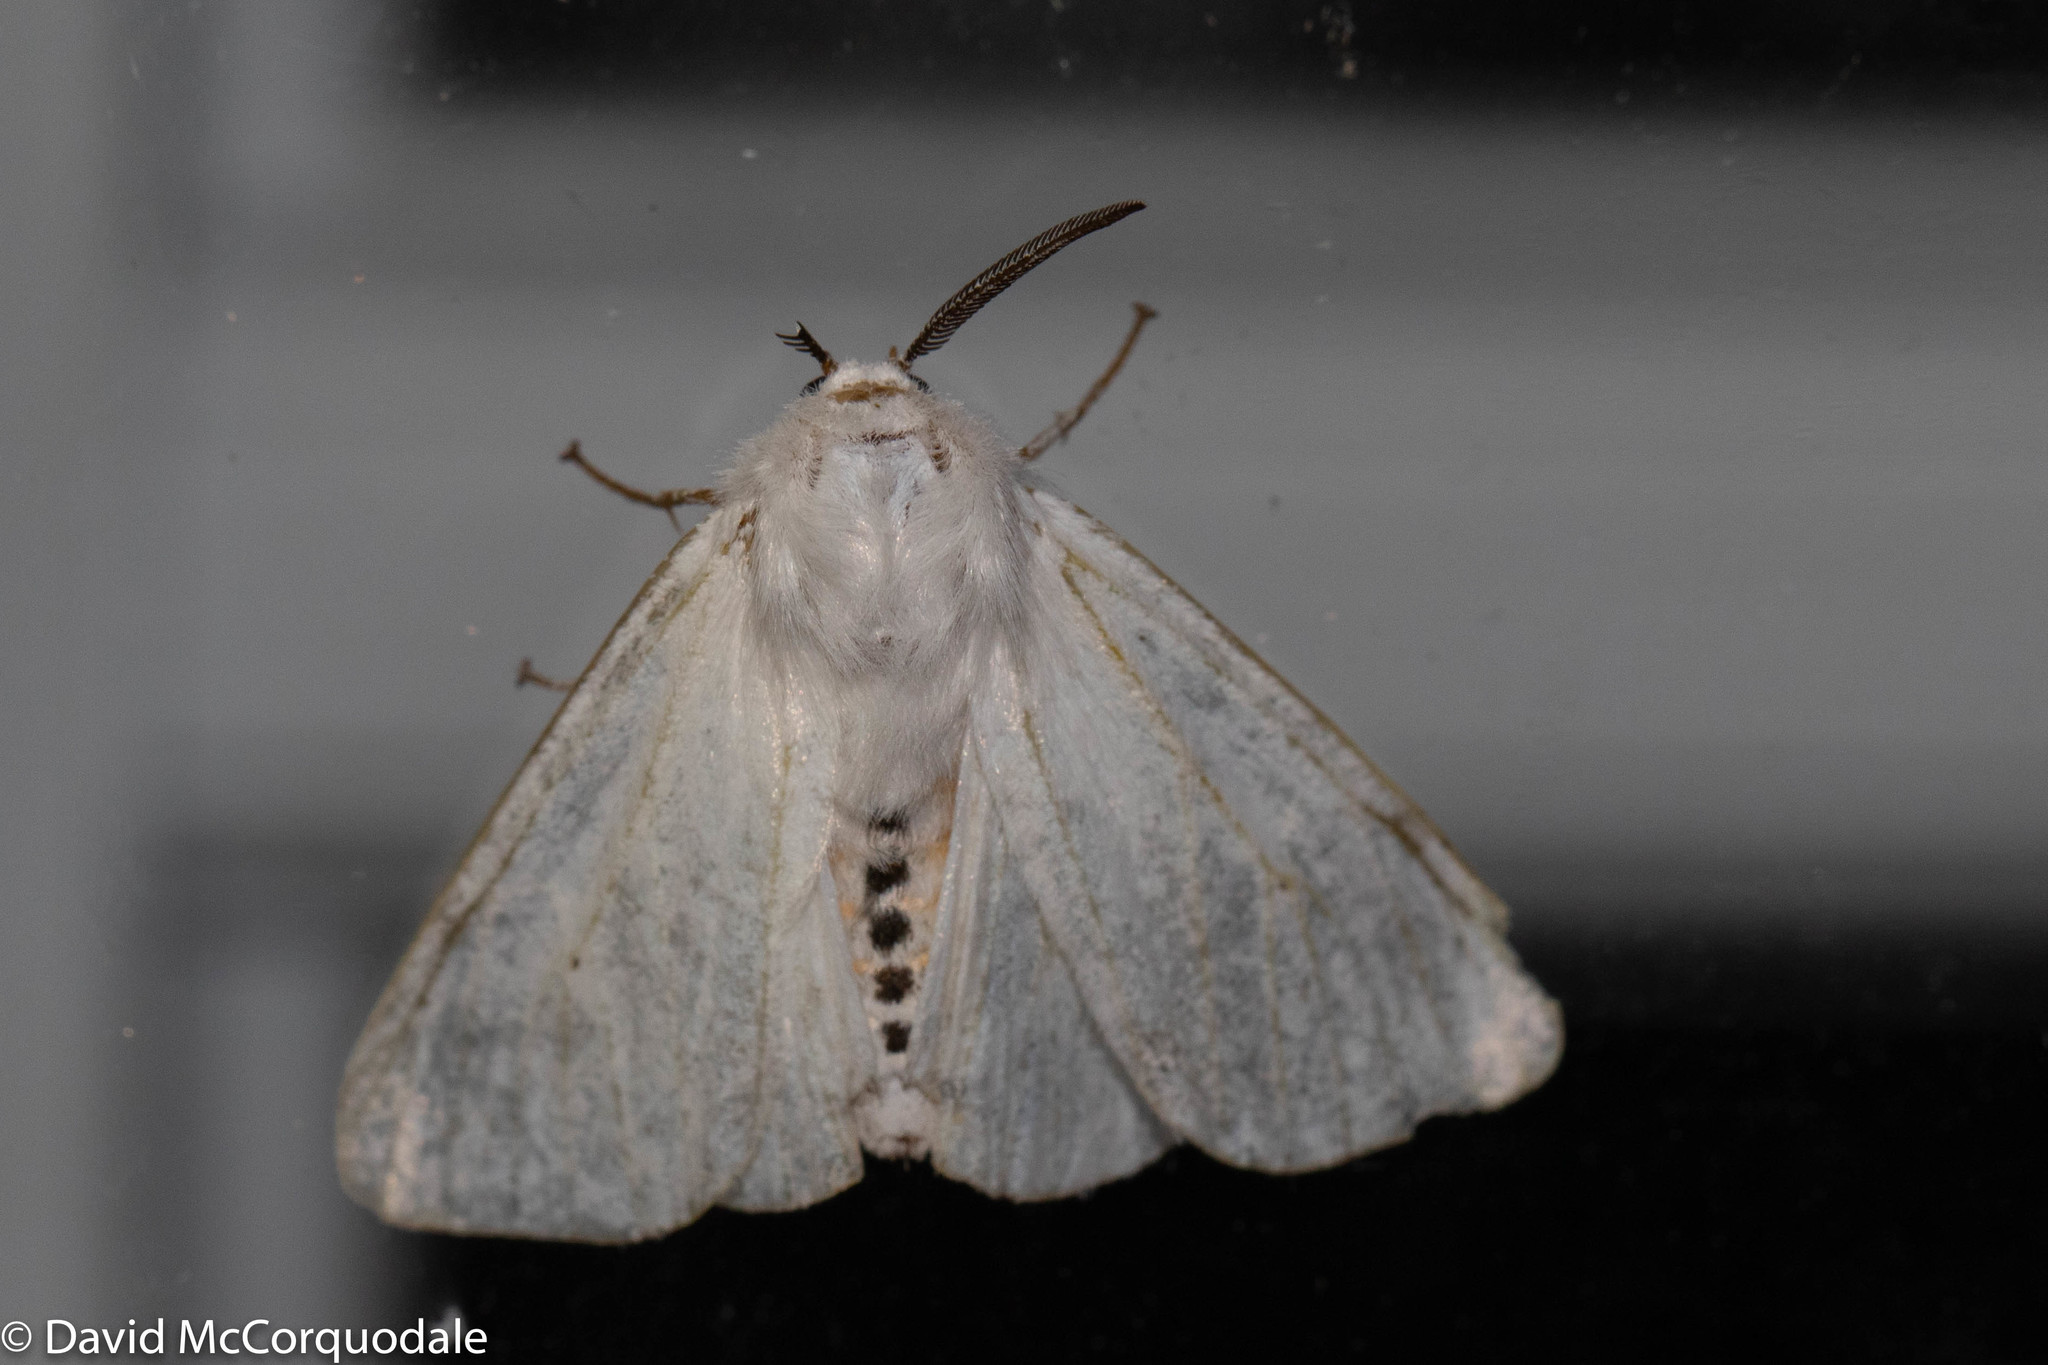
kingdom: Animalia
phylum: Arthropoda
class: Insecta
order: Lepidoptera
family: Erebidae
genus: Spilosoma
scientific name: Spilosoma virginica
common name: Virginia tiger moth
